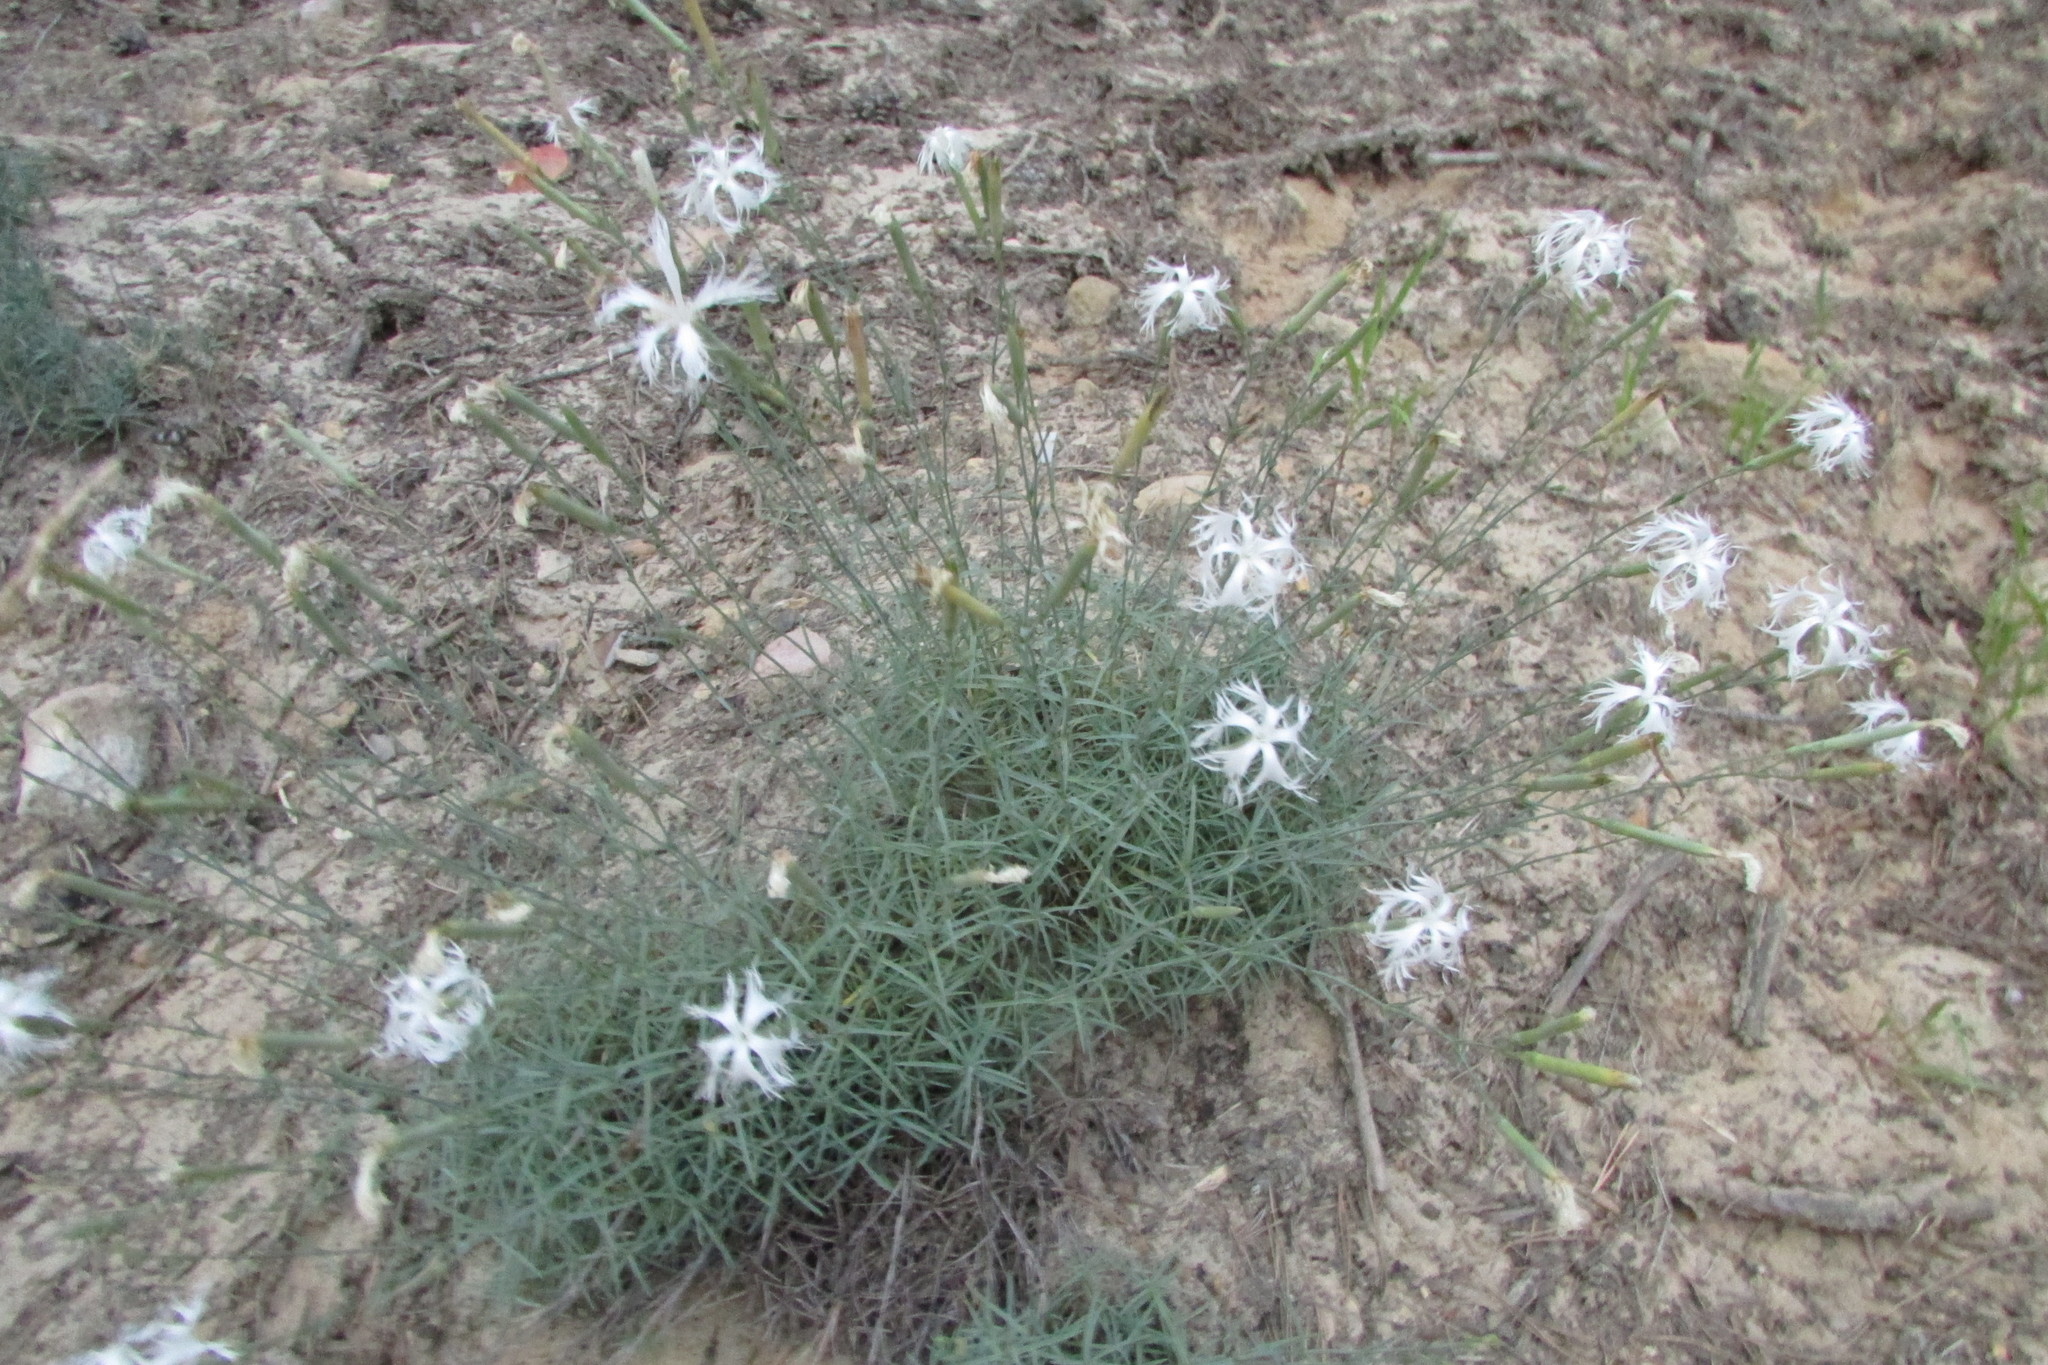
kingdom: Plantae
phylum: Tracheophyta
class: Magnoliopsida
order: Caryophyllales
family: Caryophyllaceae
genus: Dianthus
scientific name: Dianthus volgicus
